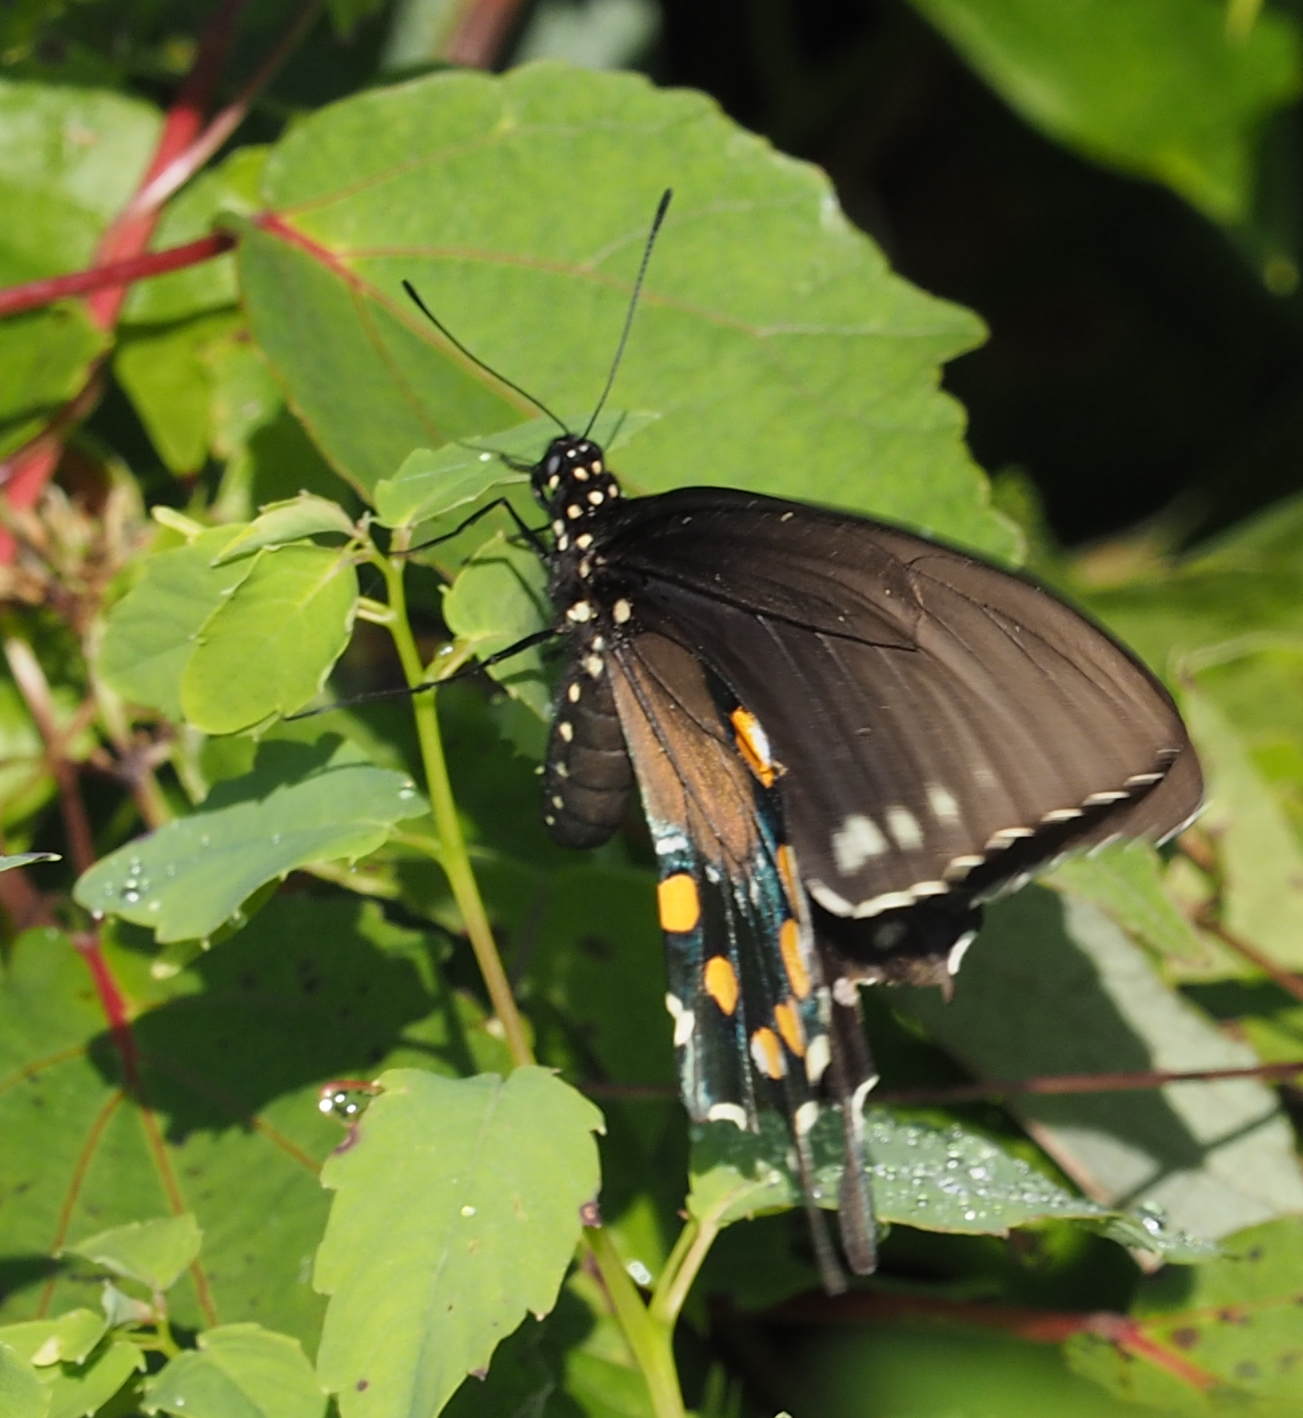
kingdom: Animalia
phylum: Arthropoda
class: Insecta
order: Lepidoptera
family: Papilionidae
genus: Battus
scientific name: Battus philenor
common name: Pipevine swallowtail
